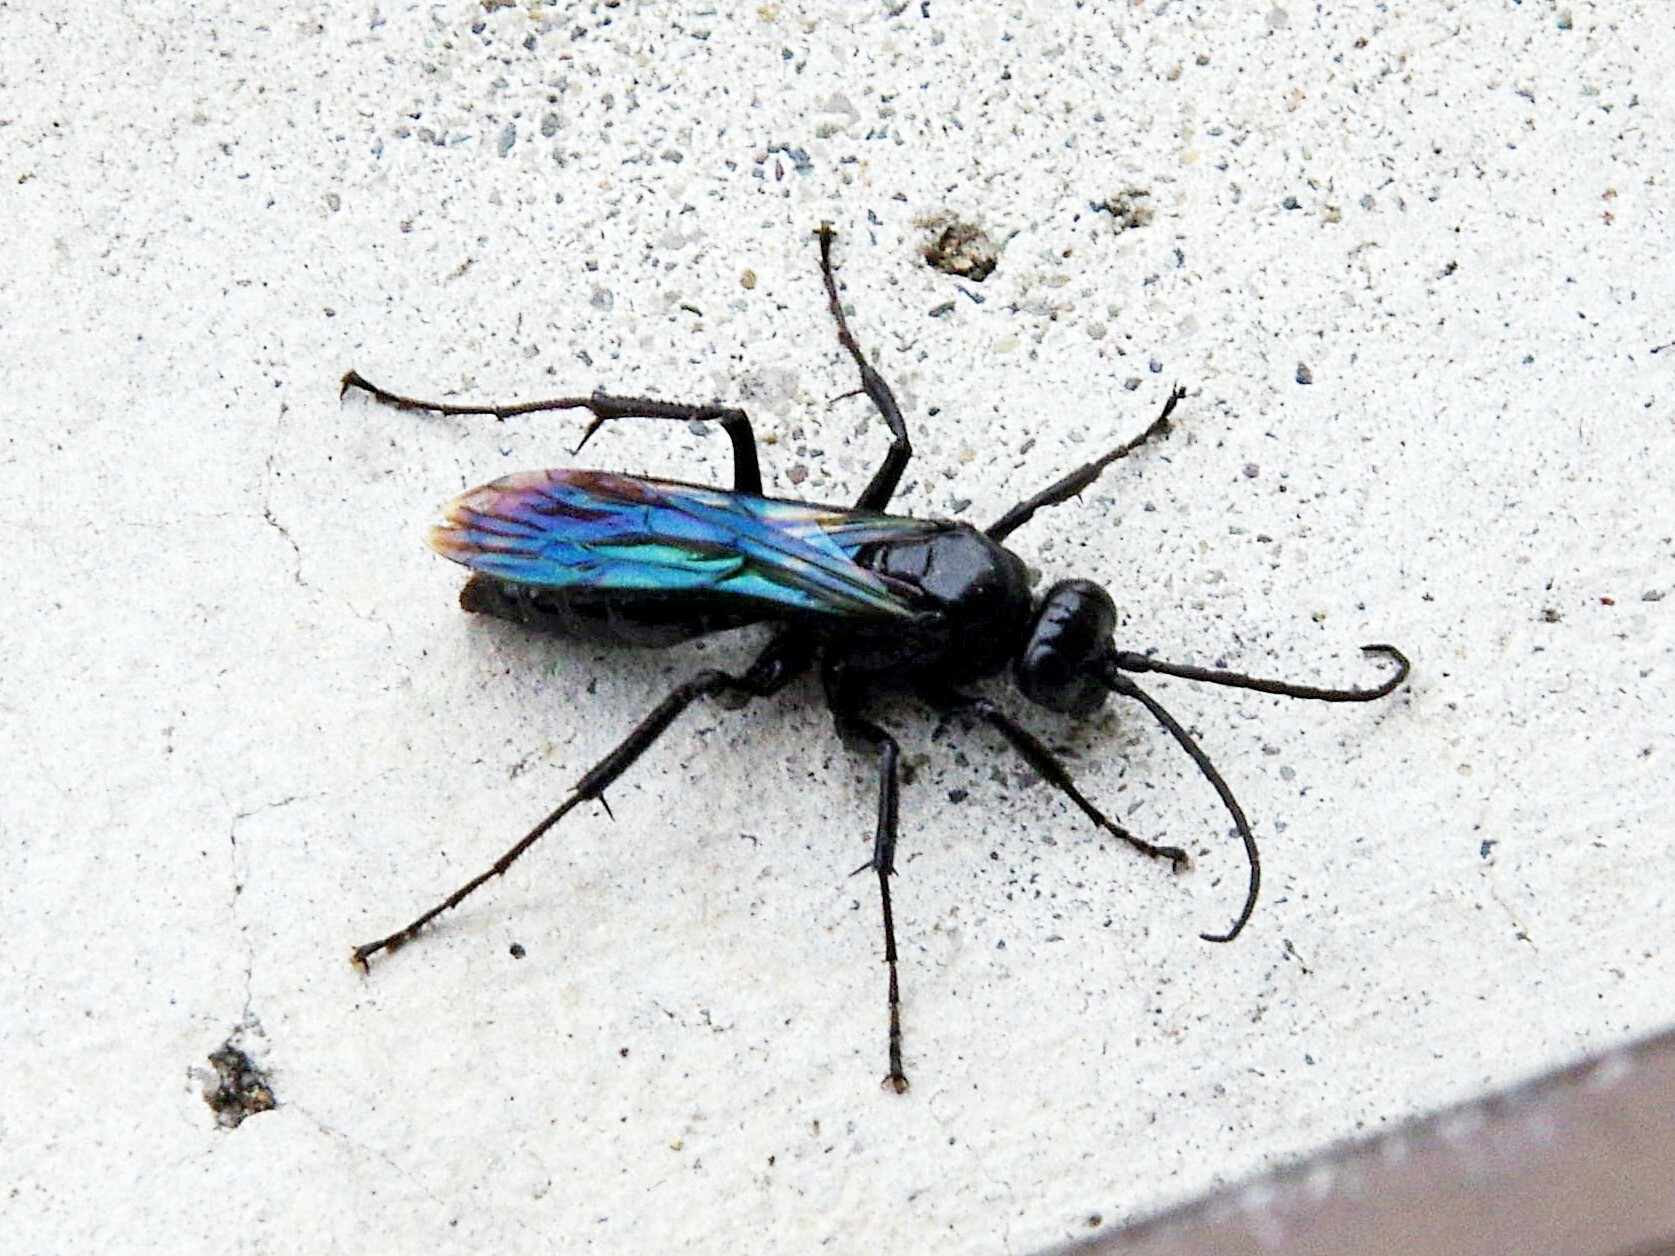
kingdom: Animalia
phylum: Arthropoda
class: Insecta
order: Hymenoptera
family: Pompilidae
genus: Priocnemis
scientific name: Priocnemis monachus
